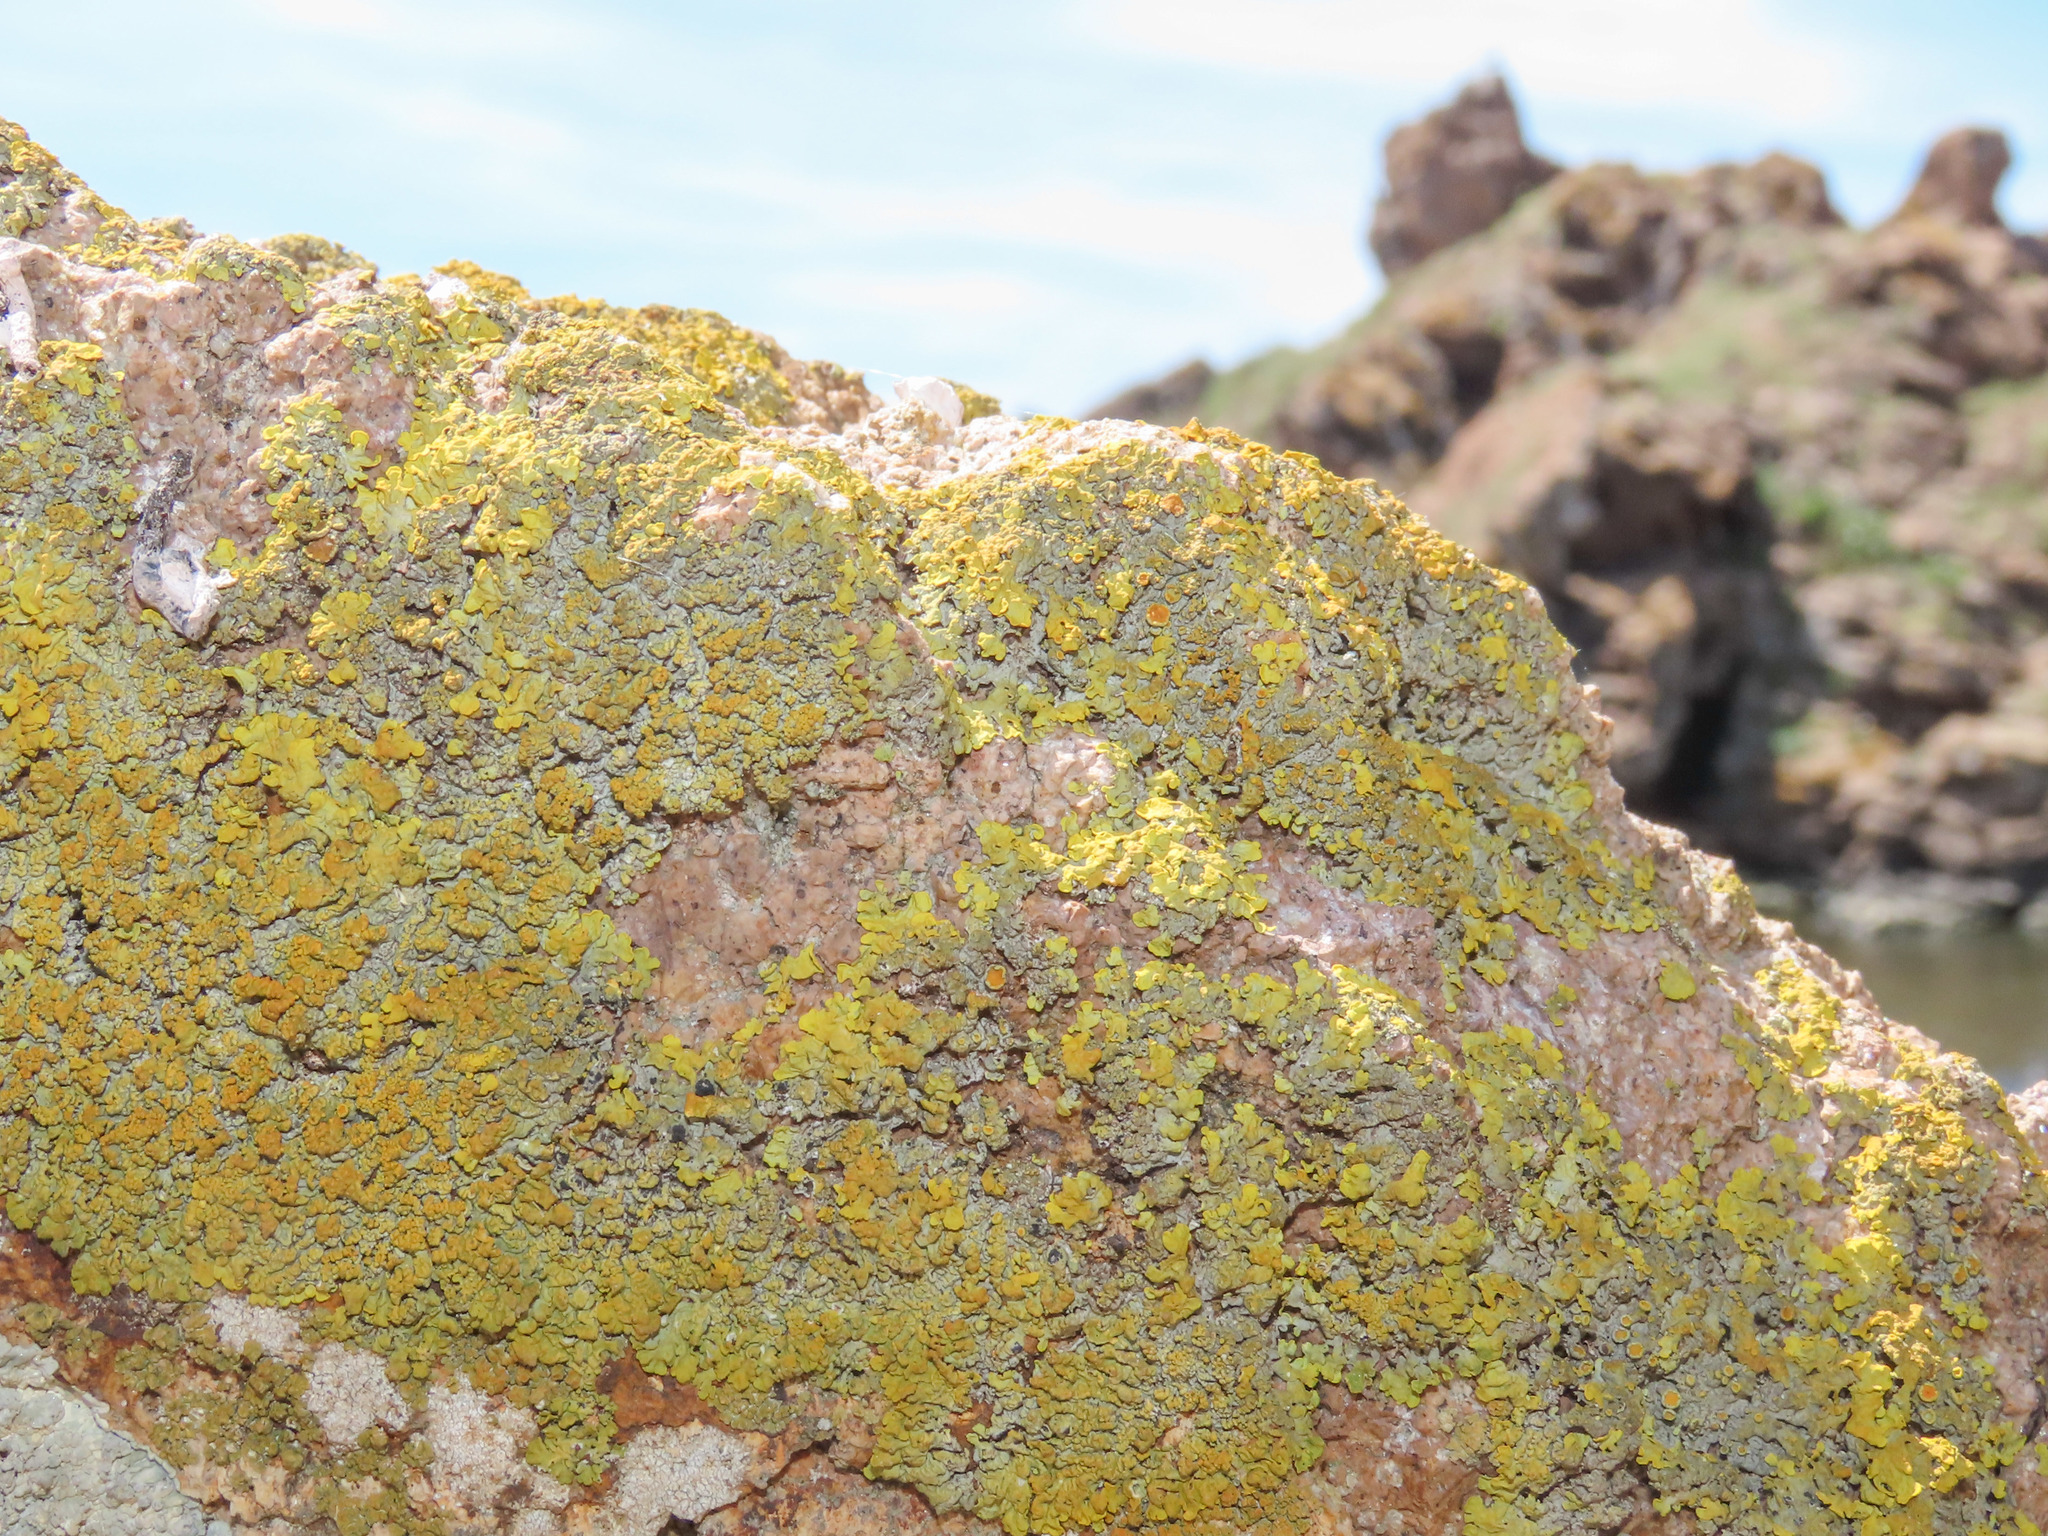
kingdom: Fungi
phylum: Ascomycota
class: Lecanoromycetes
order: Teloschistales
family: Teloschistaceae
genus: Xanthoria
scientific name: Xanthoria calcicola
